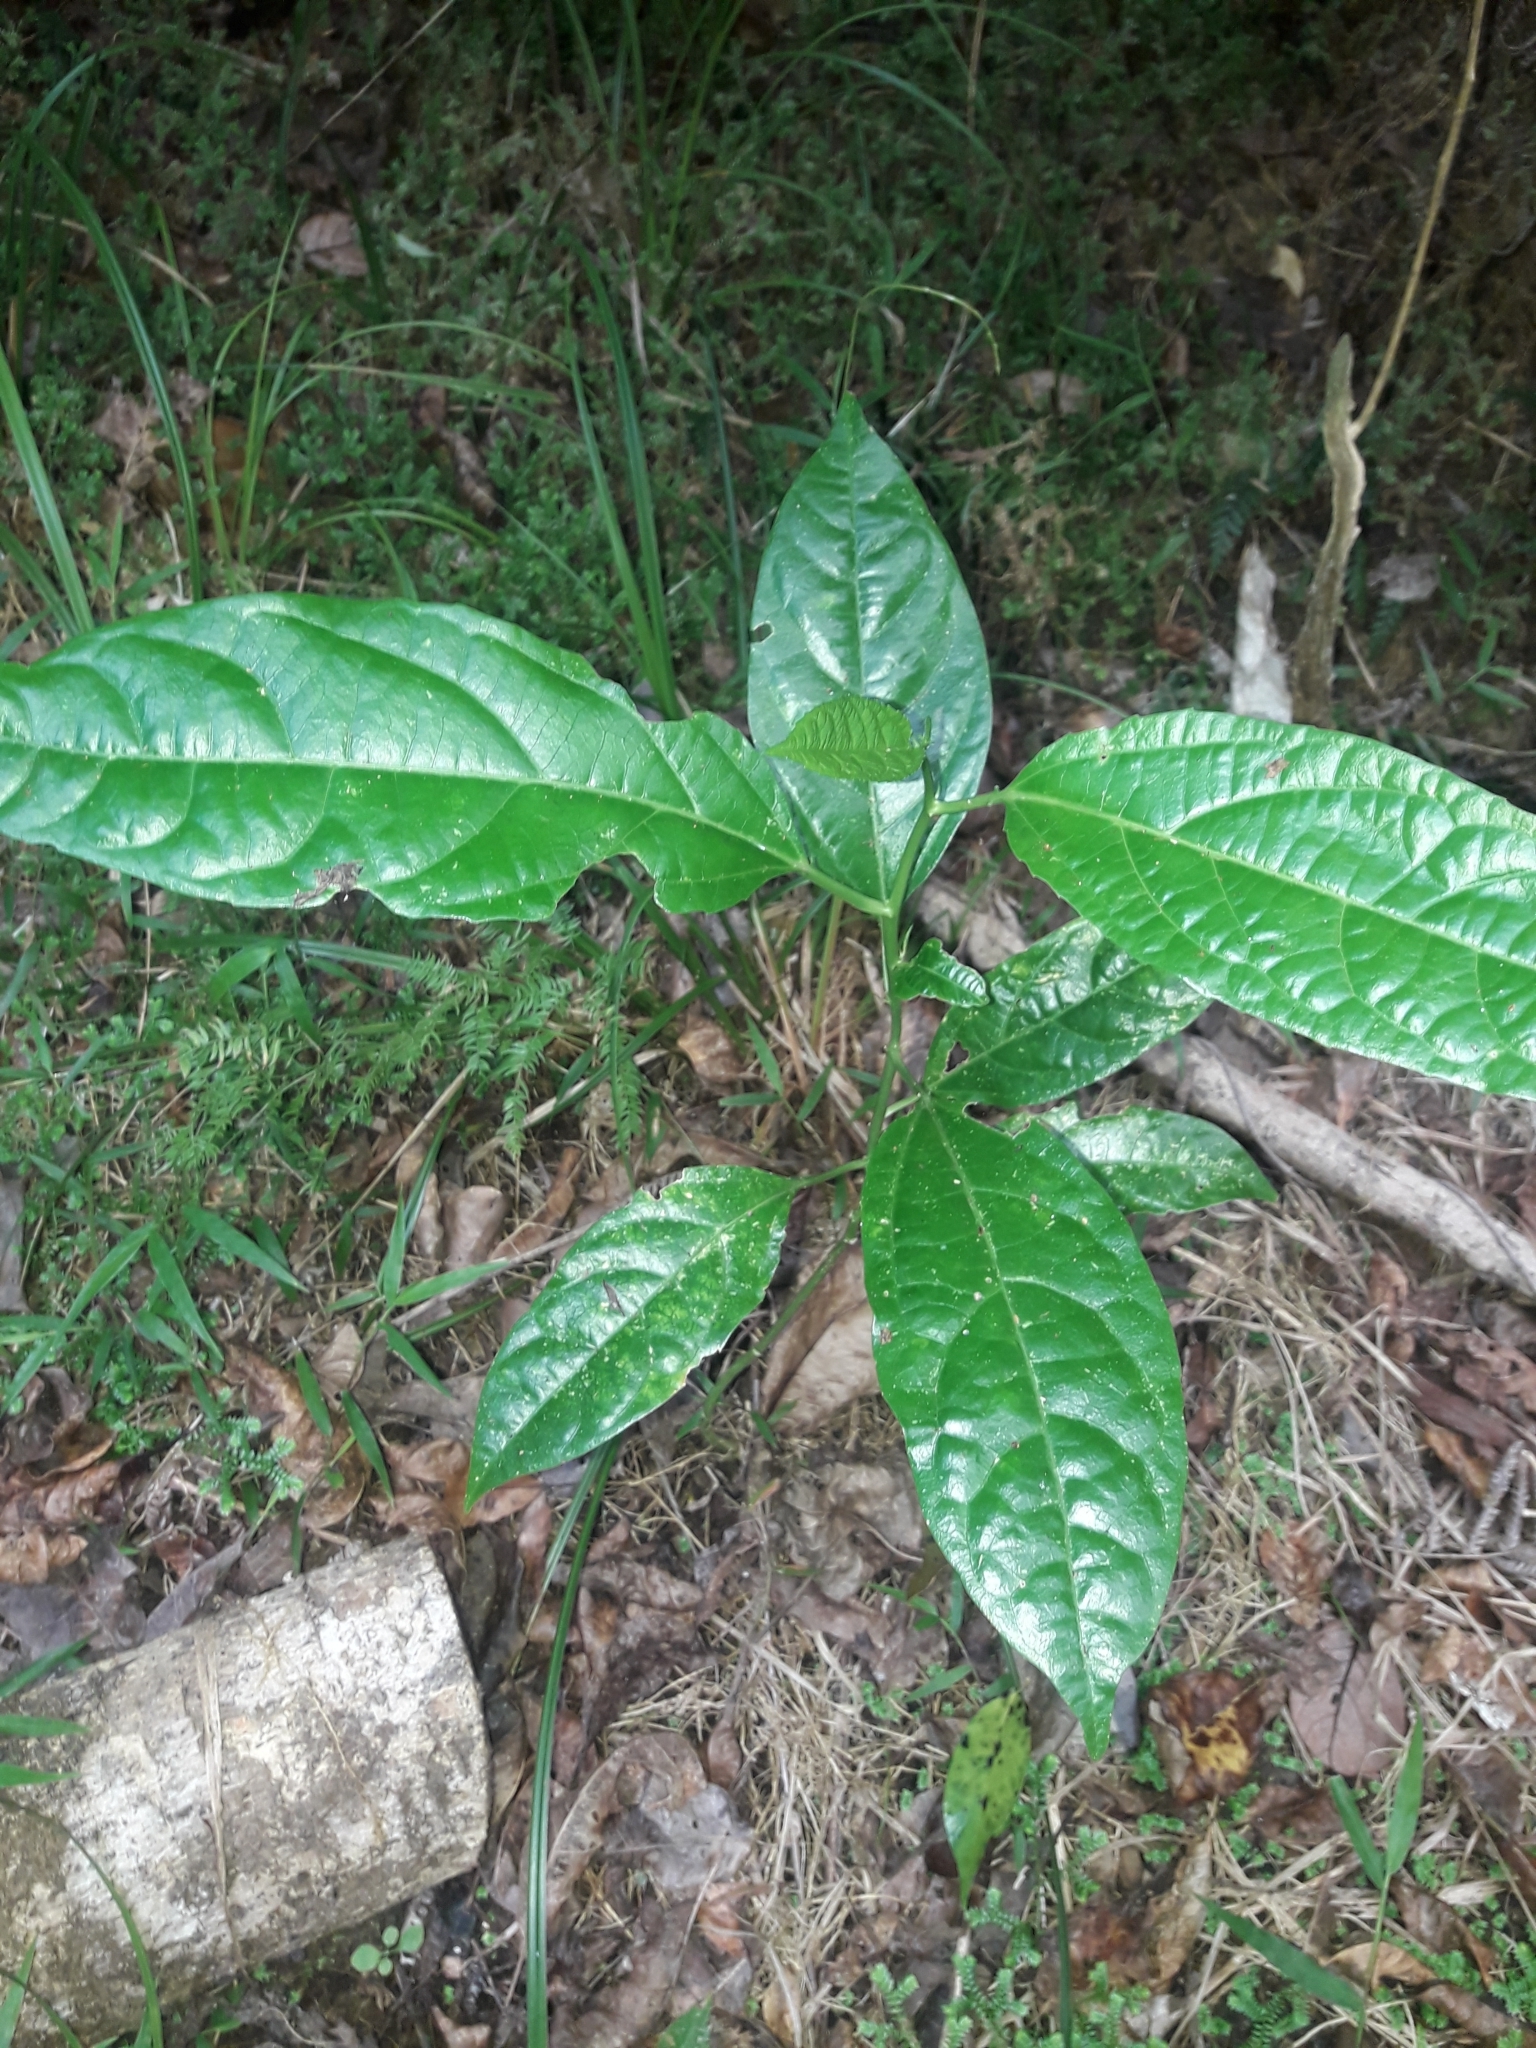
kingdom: Plantae
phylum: Tracheophyta
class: Magnoliopsida
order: Malpighiales
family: Passifloraceae
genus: Passiflora
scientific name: Passiflora edulis
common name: Purple granadilla
